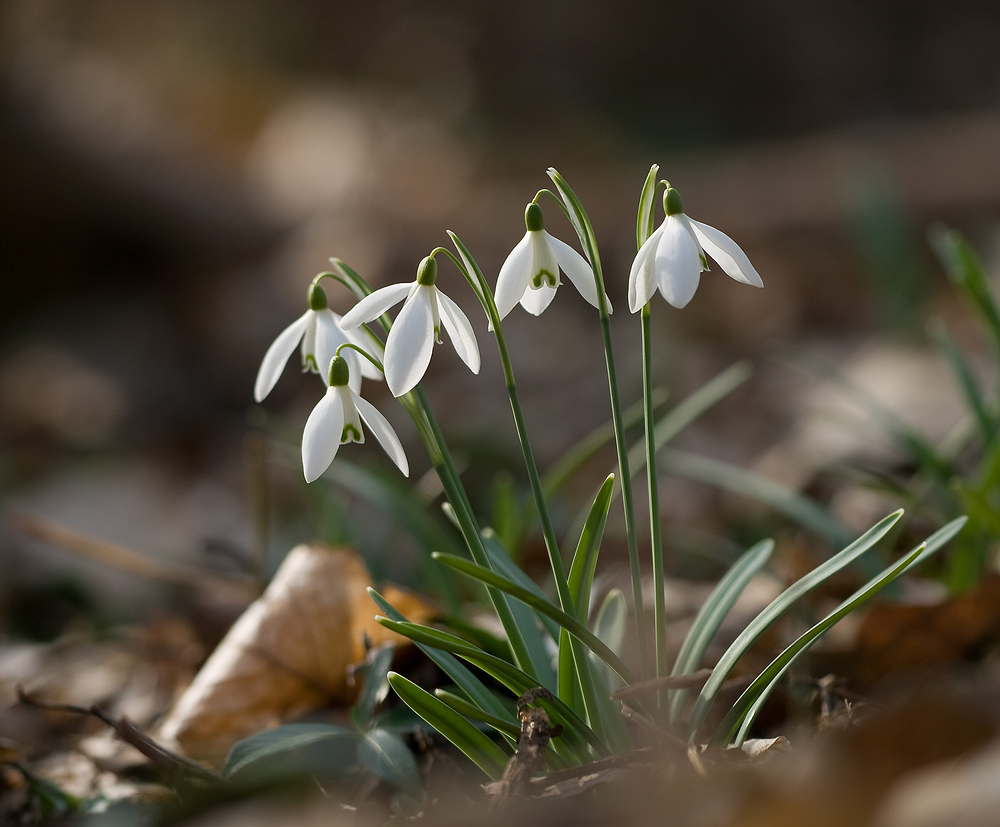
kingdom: Plantae
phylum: Tracheophyta
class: Liliopsida
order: Asparagales
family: Amaryllidaceae
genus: Galanthus
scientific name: Galanthus nivalis
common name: Snowdrop
